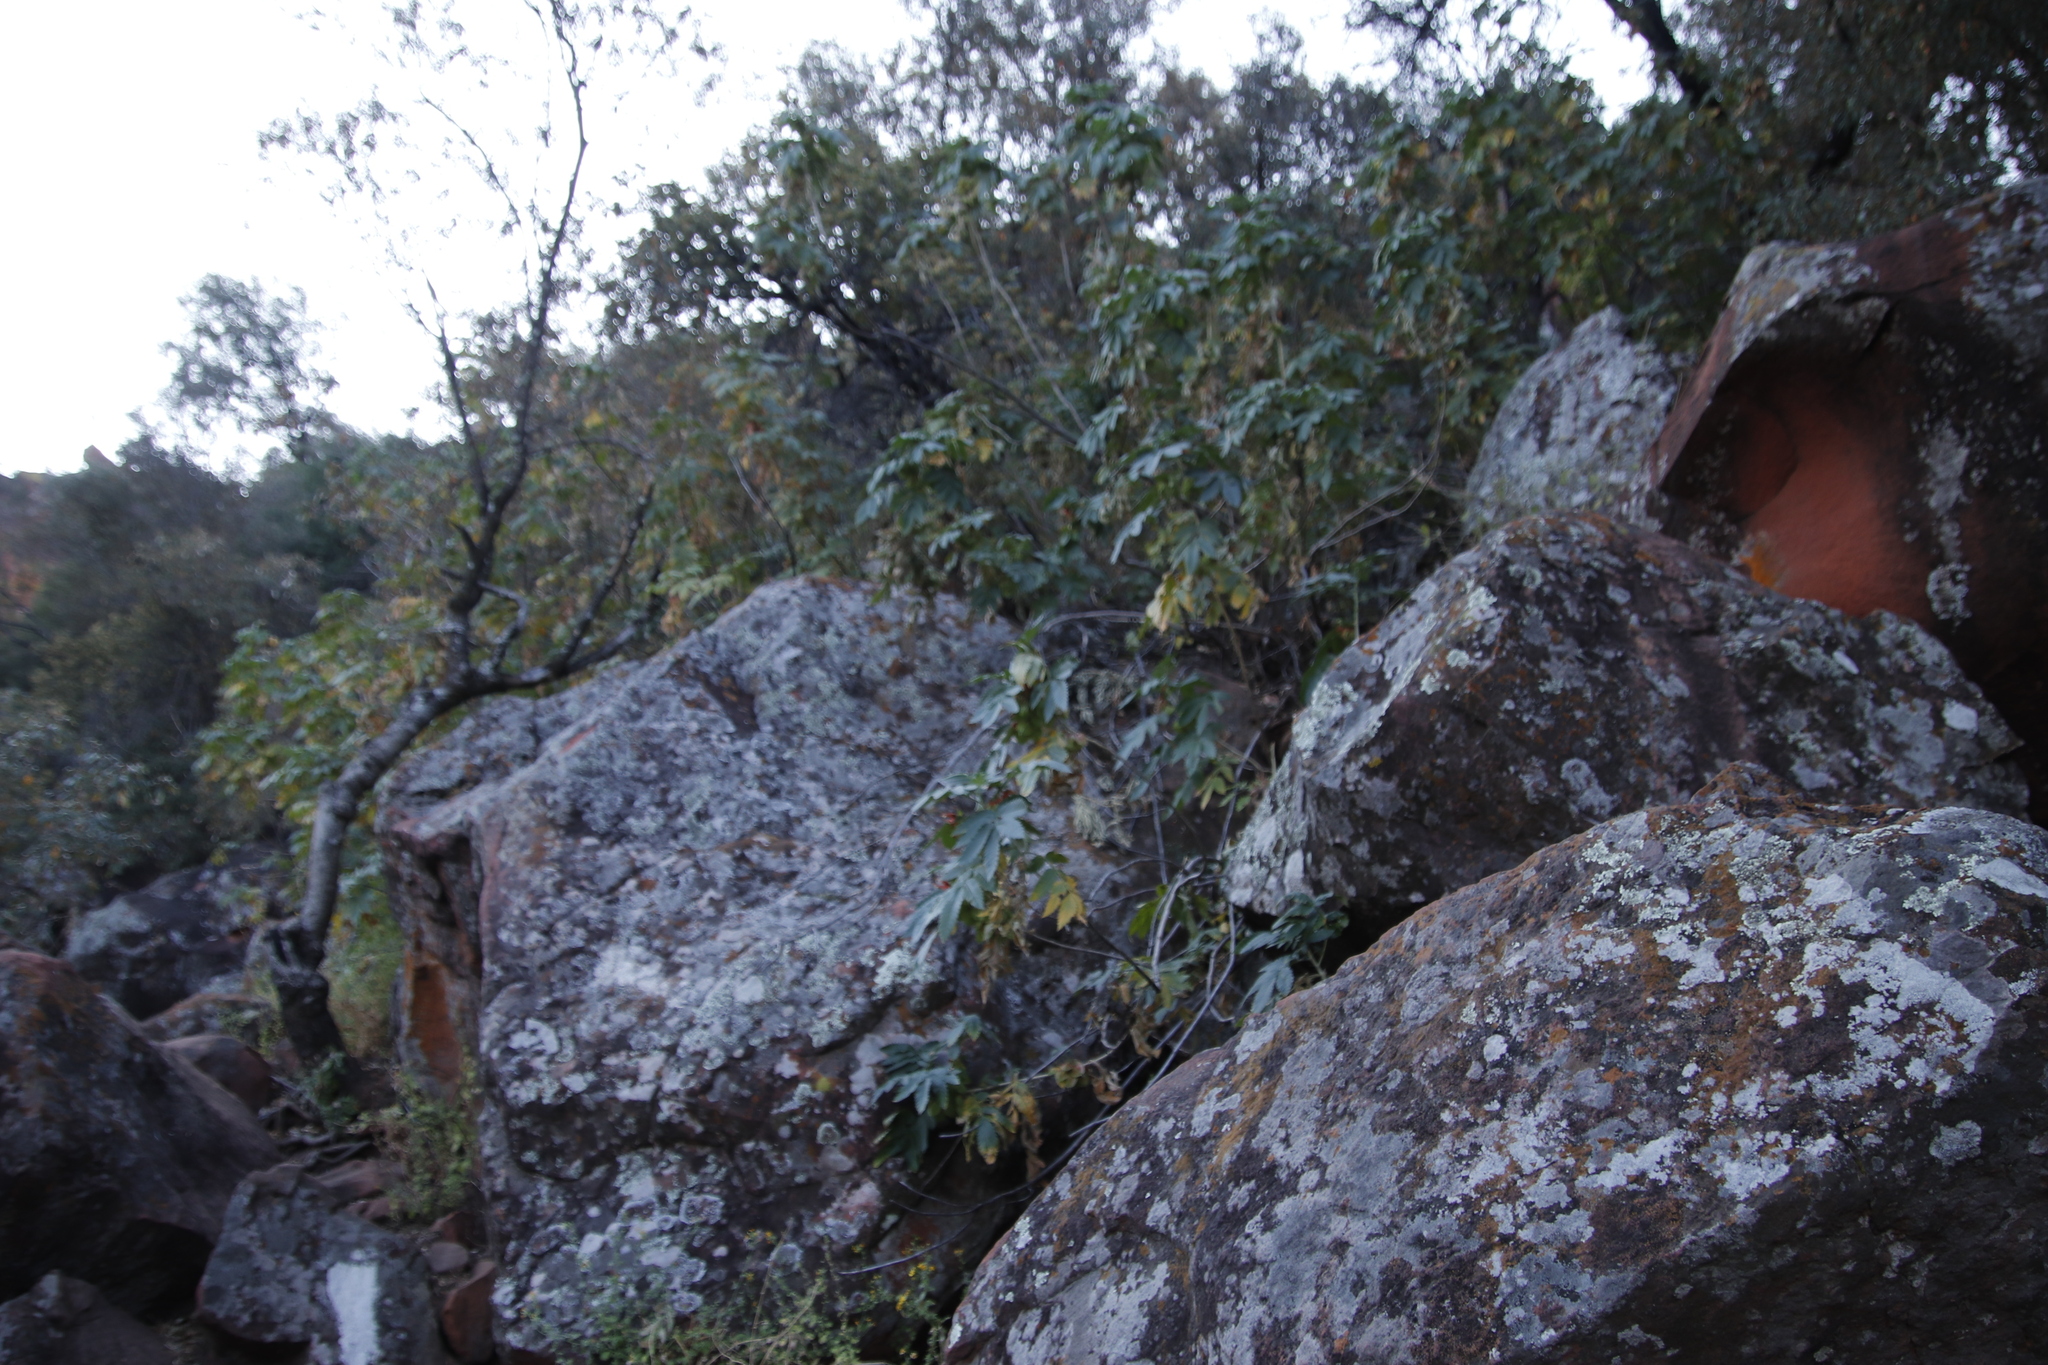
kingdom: Plantae
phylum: Tracheophyta
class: Magnoliopsida
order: Geraniales
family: Melianthaceae
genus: Melianthus
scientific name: Melianthus comosus
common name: Touch-me-not
